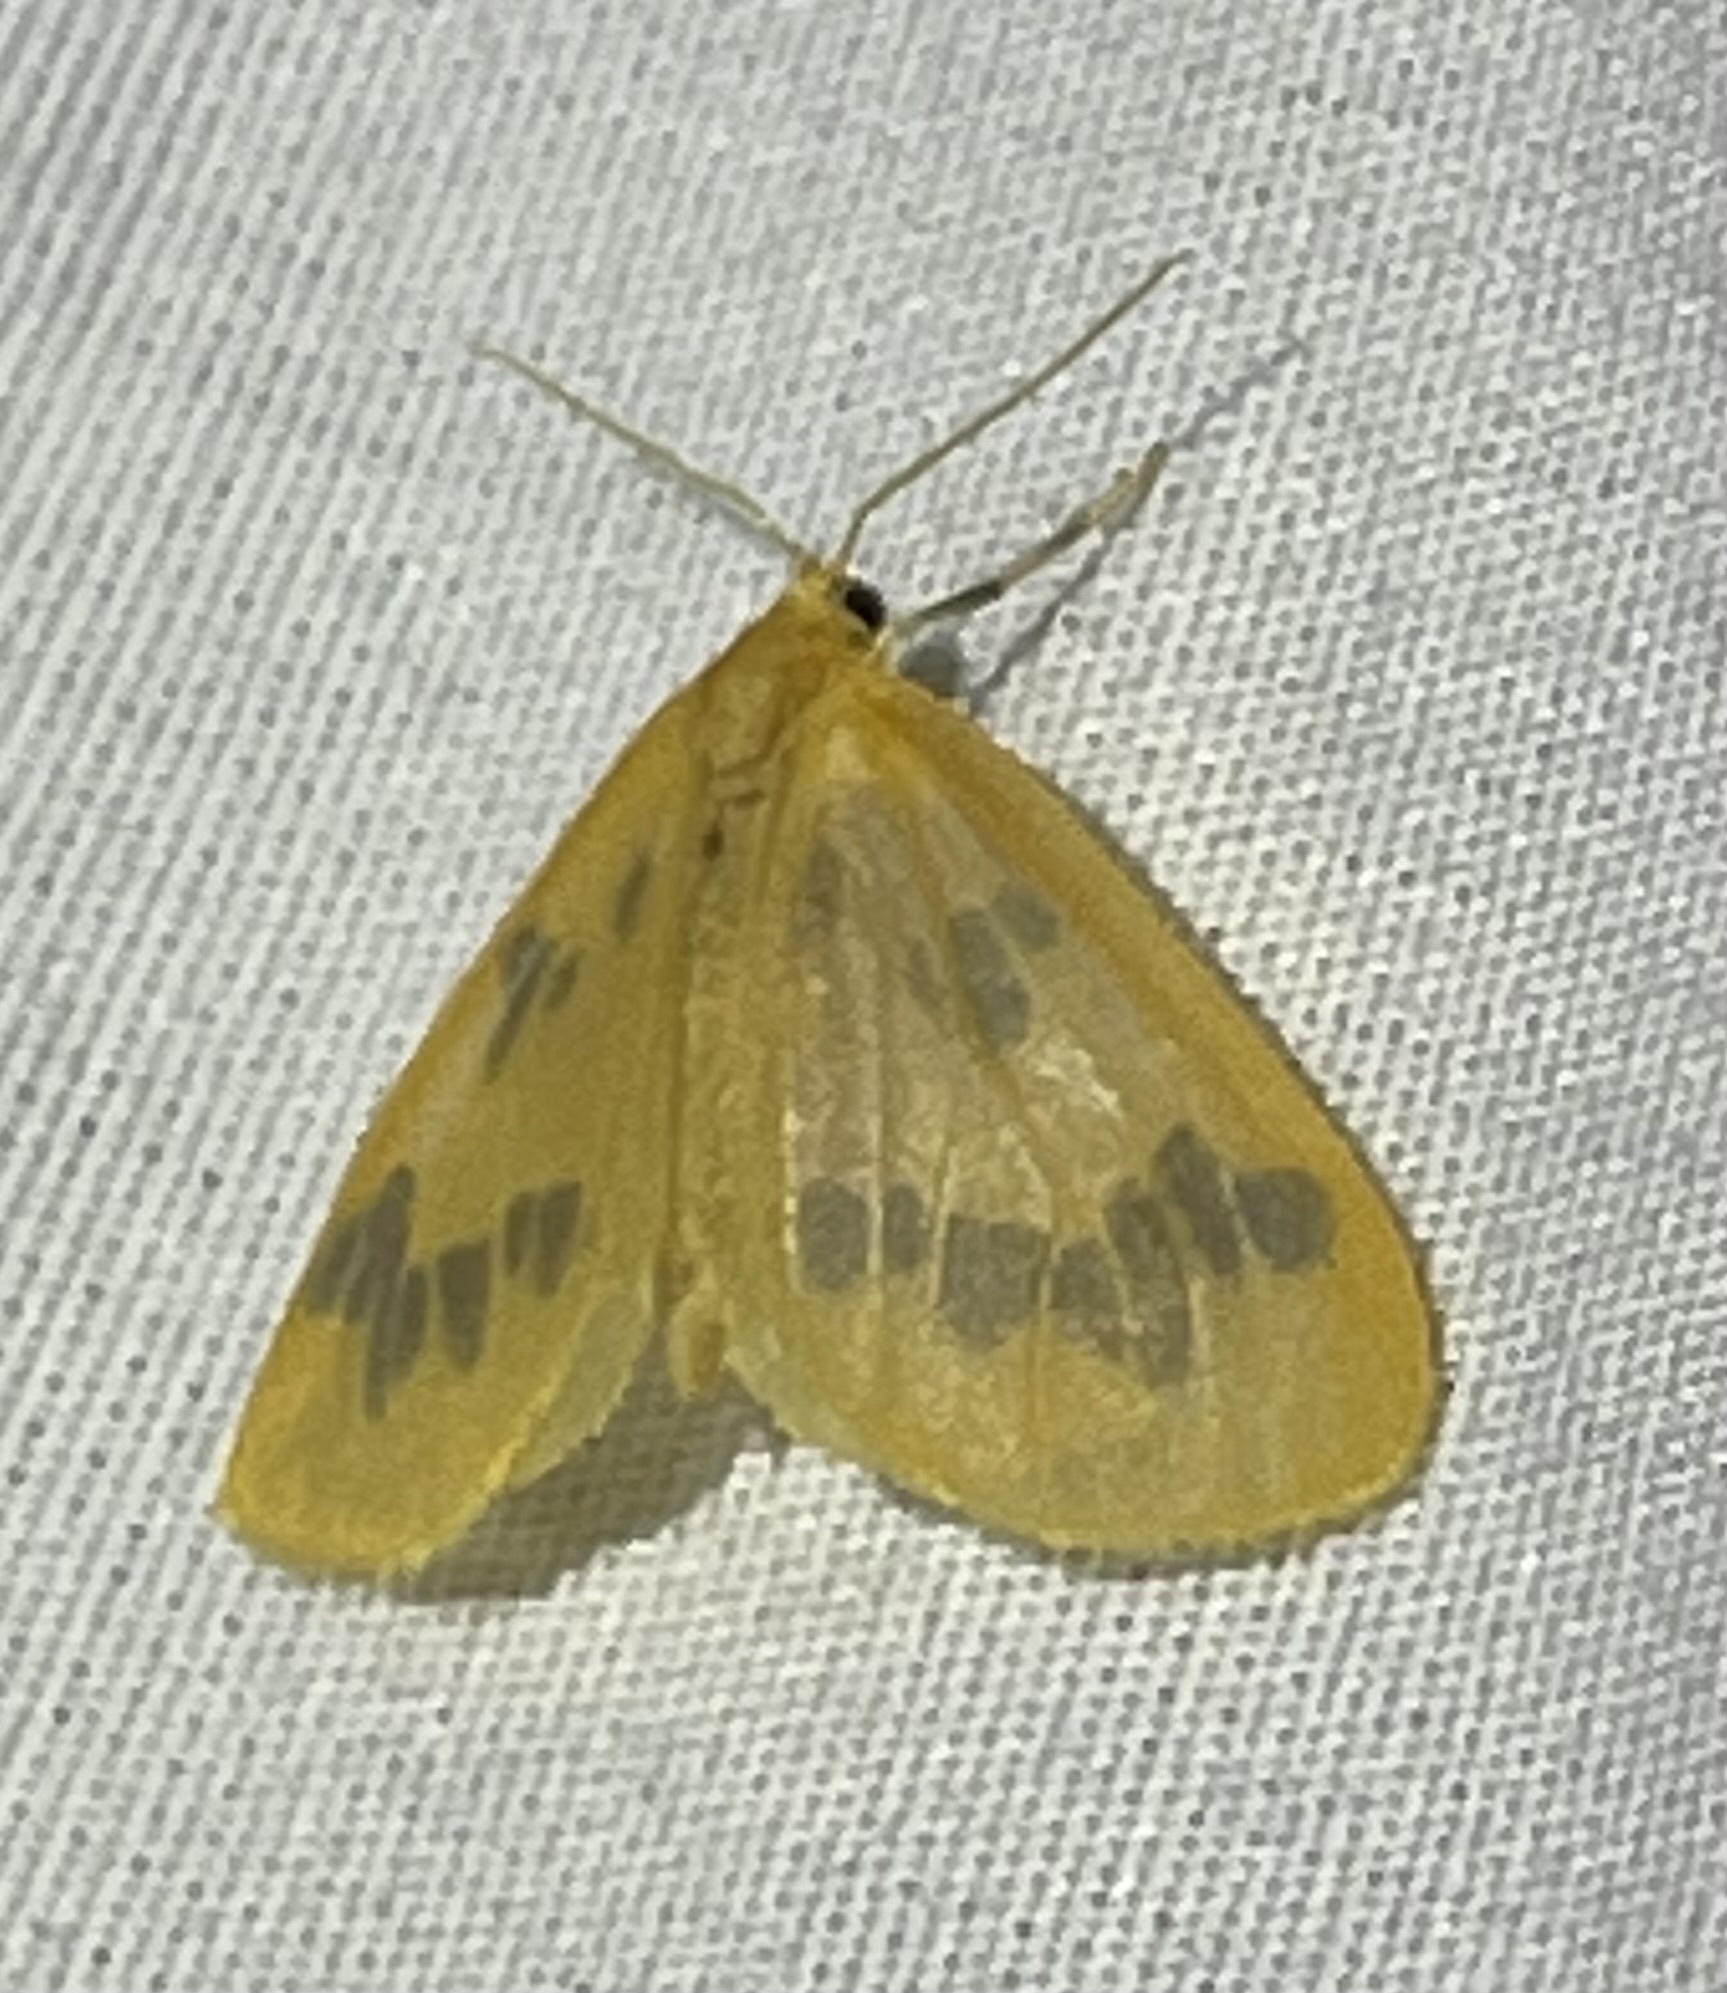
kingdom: Animalia
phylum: Arthropoda
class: Insecta
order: Lepidoptera
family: Geometridae
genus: Eubaphe
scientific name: Eubaphe mendica
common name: Beggar
